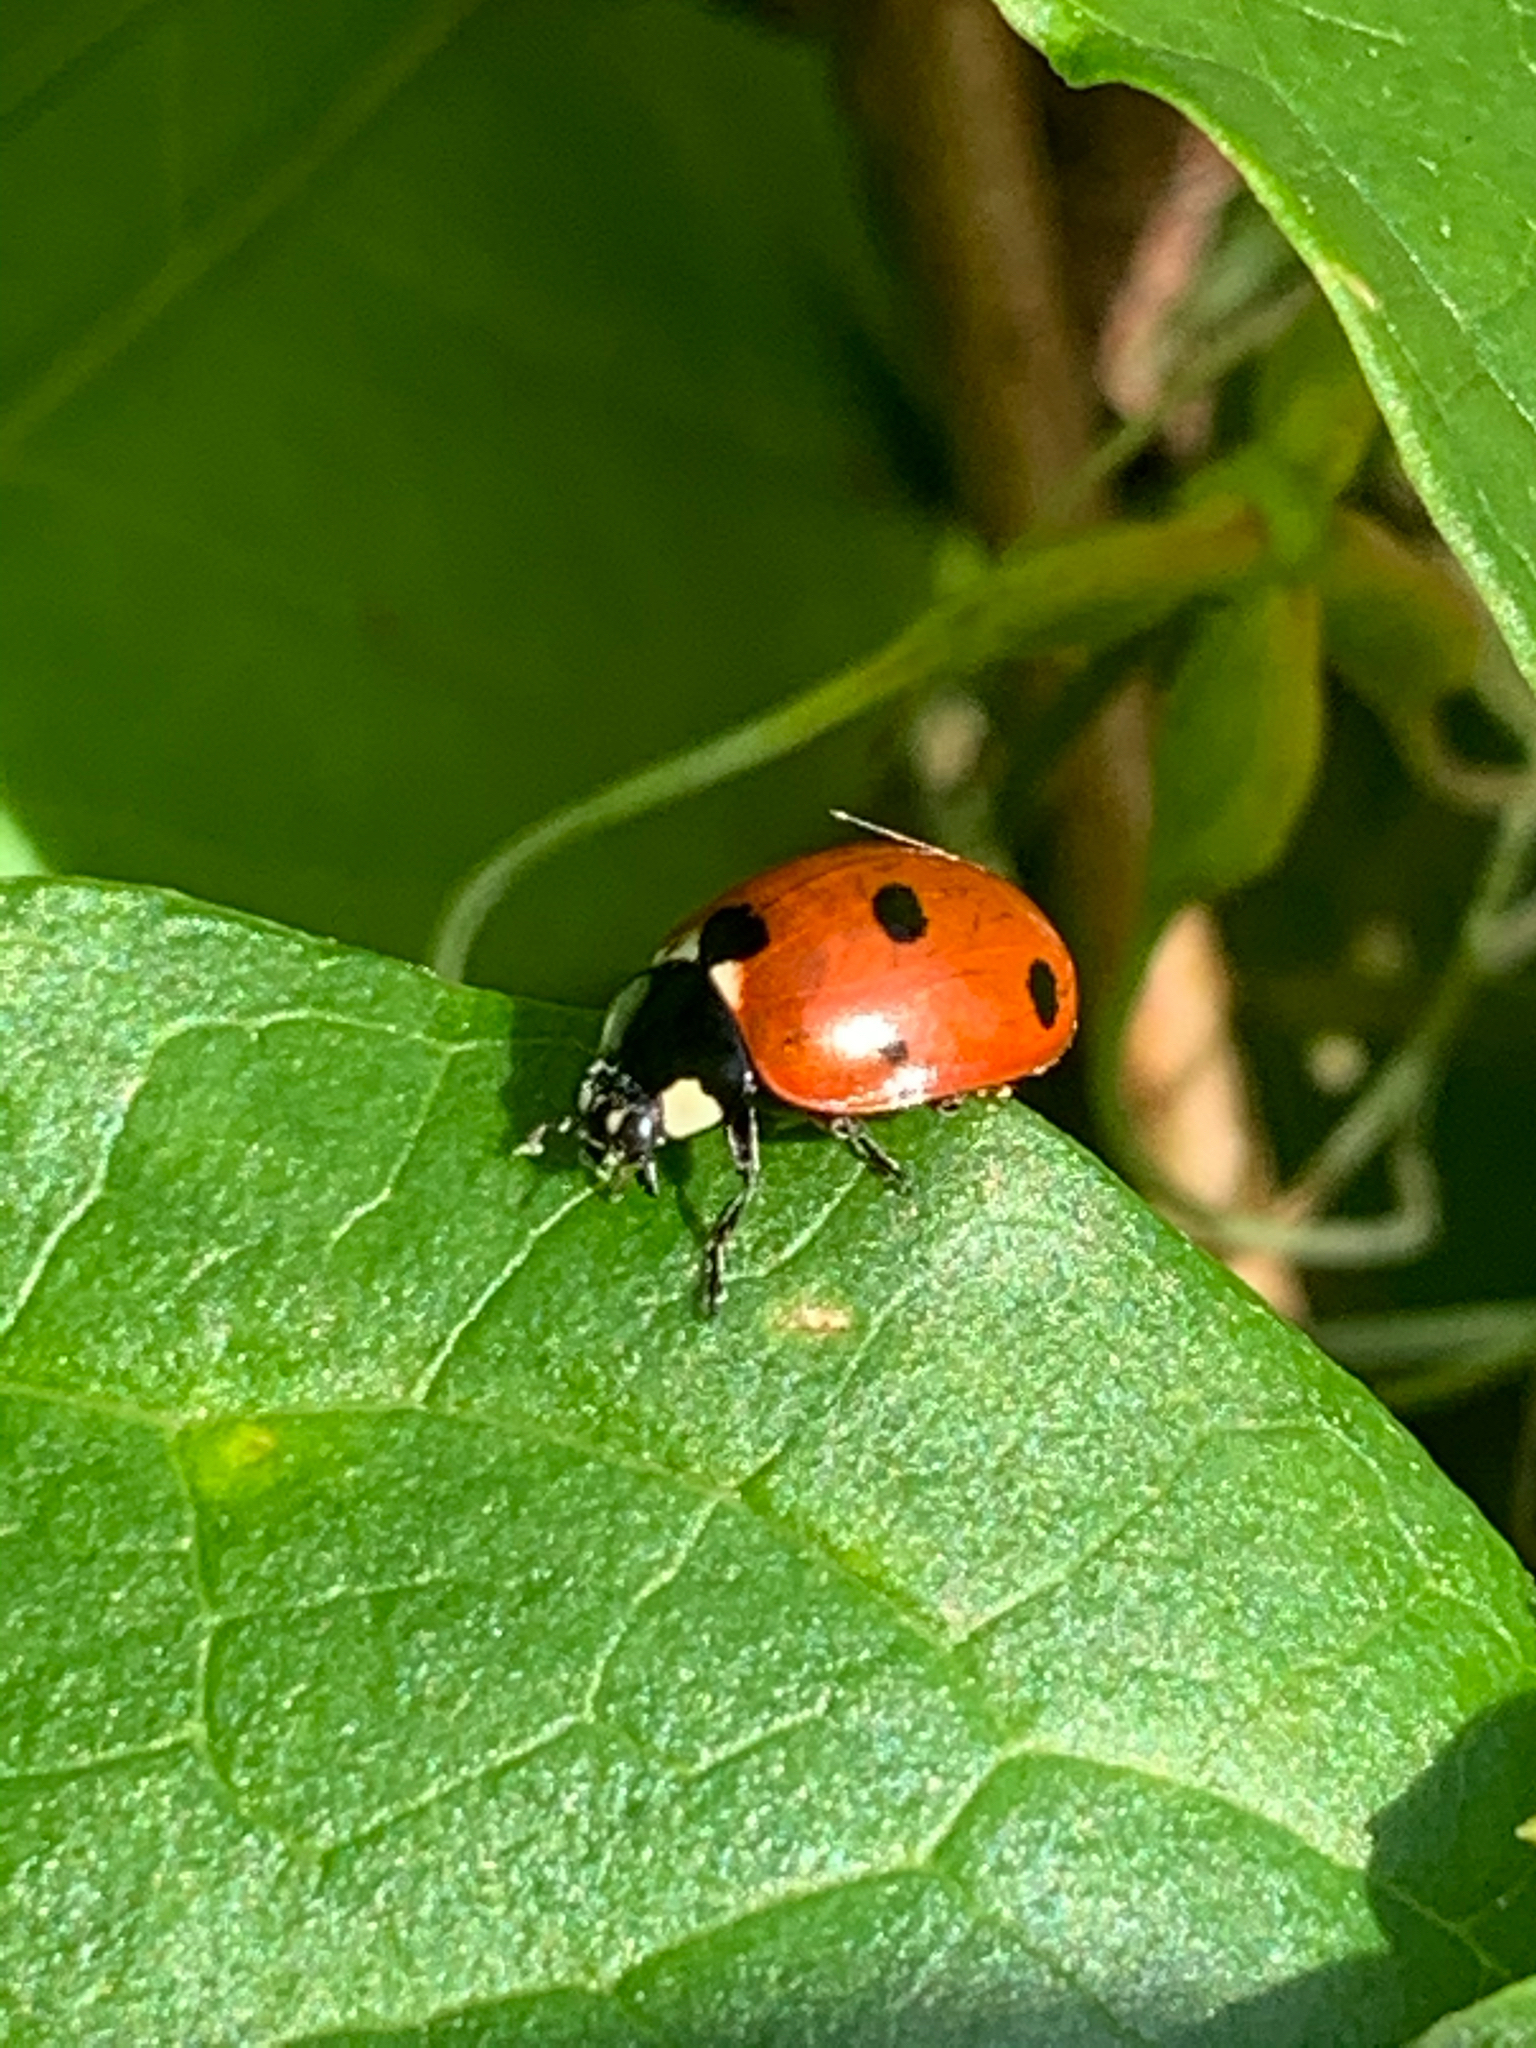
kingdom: Animalia
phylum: Arthropoda
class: Insecta
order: Coleoptera
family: Coccinellidae
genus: Coccinella
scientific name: Coccinella septempunctata
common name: Sevenspotted lady beetle
